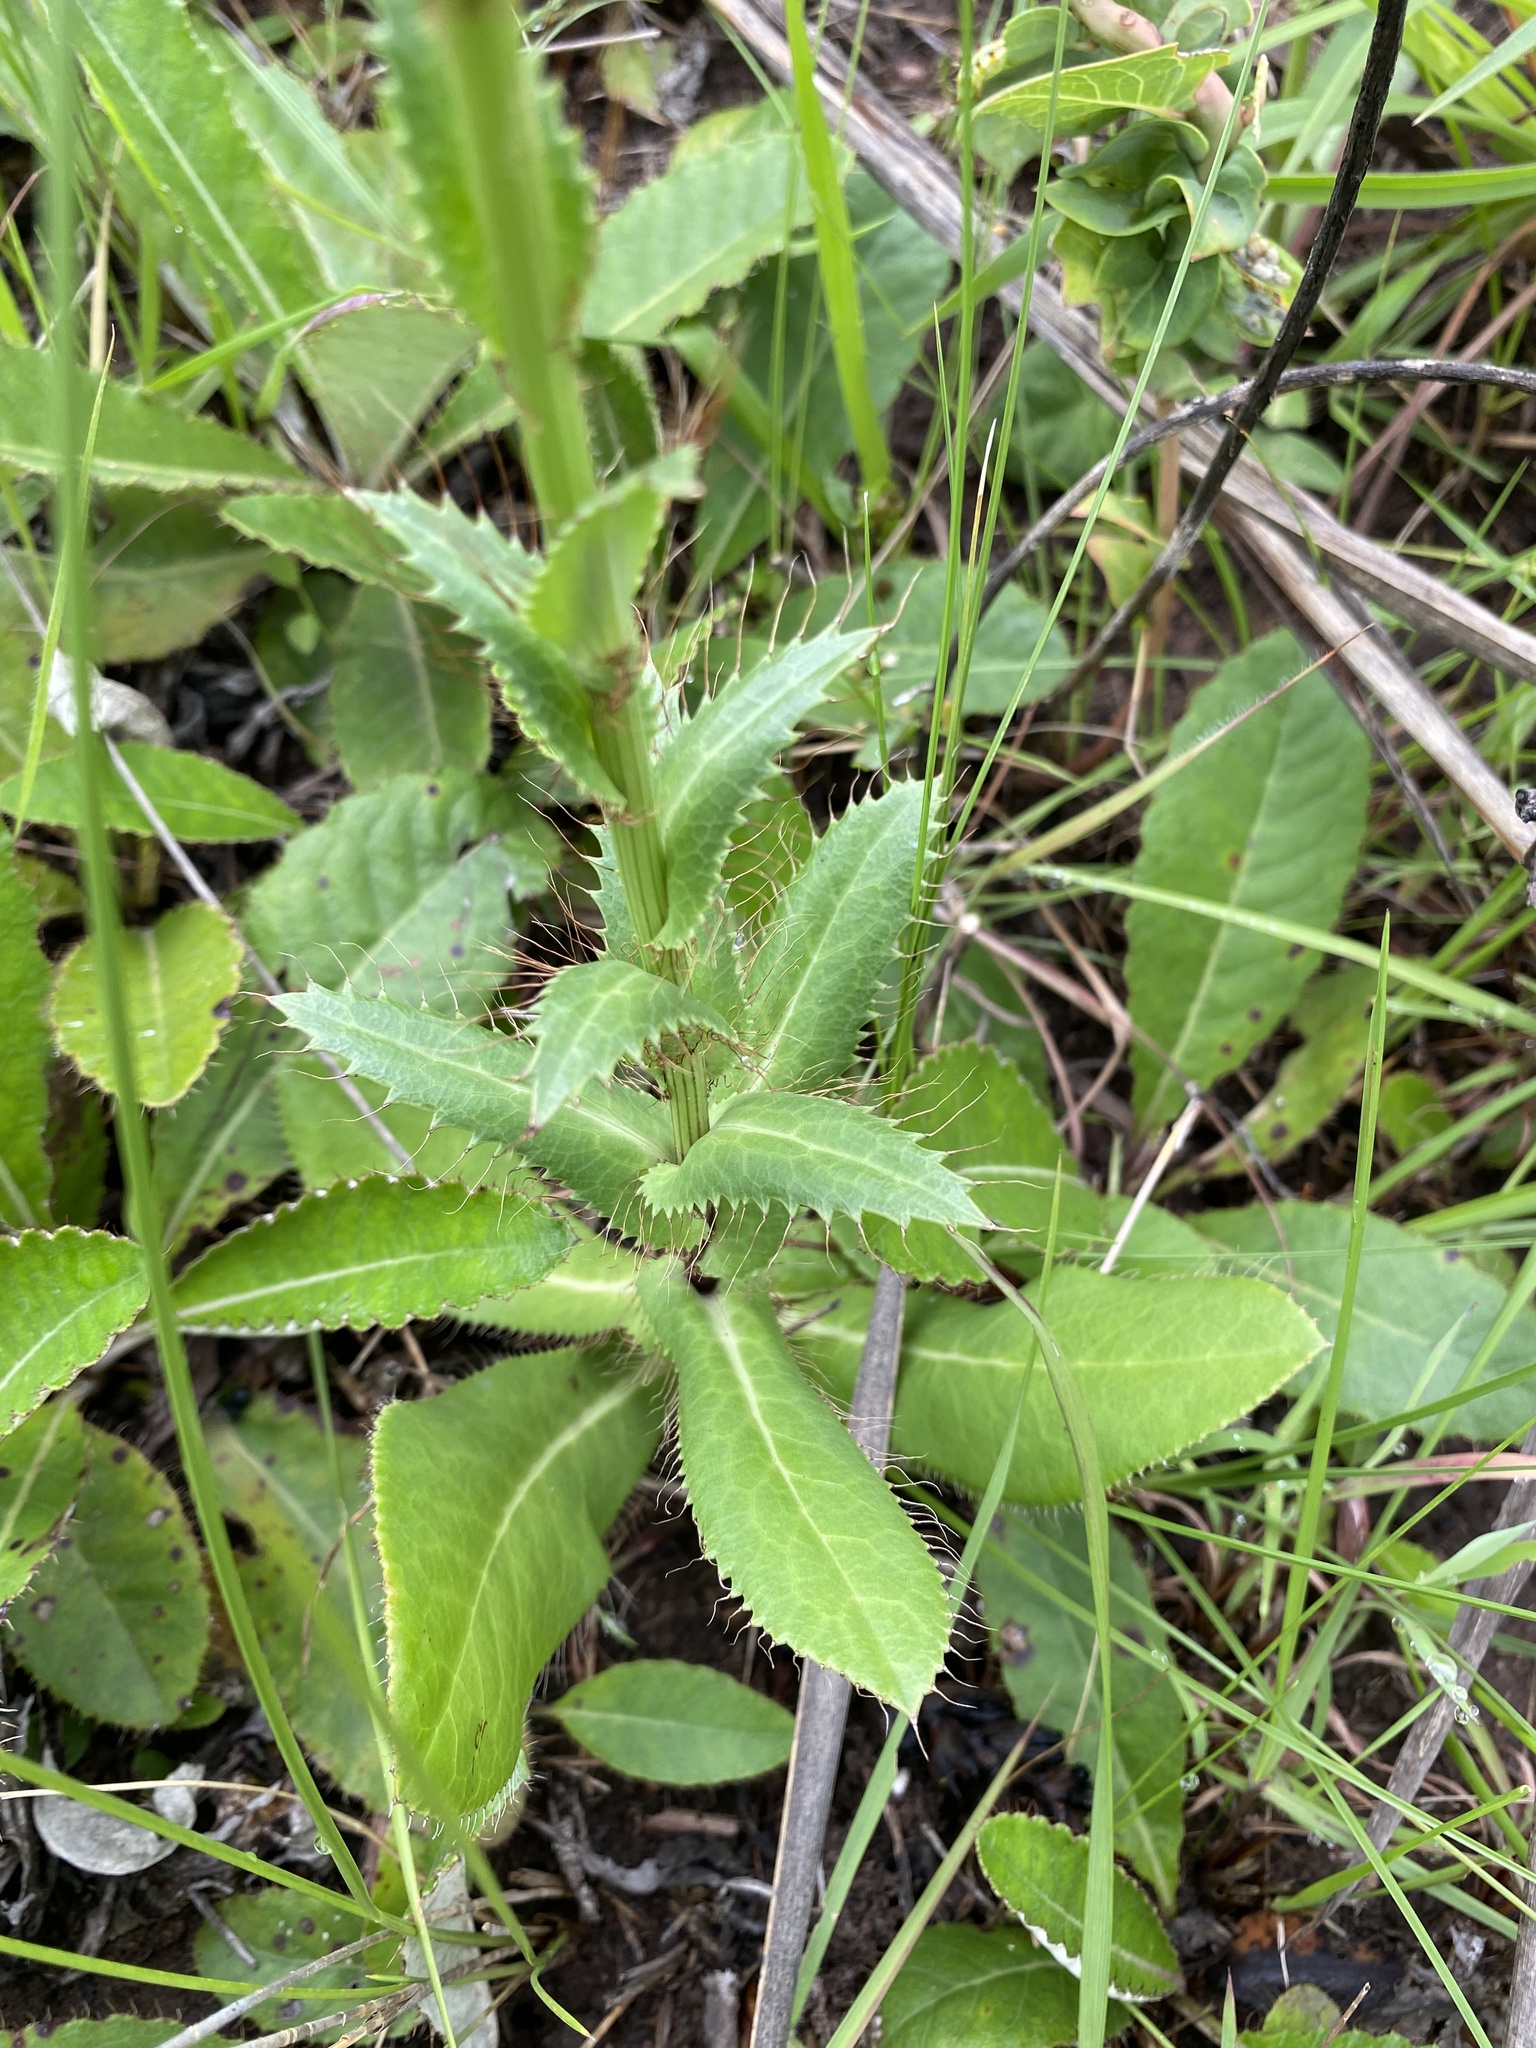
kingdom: Plantae
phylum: Tracheophyta
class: Magnoliopsida
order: Apiales
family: Apiaceae
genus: Alepidea
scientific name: Alepidea peduncularis
